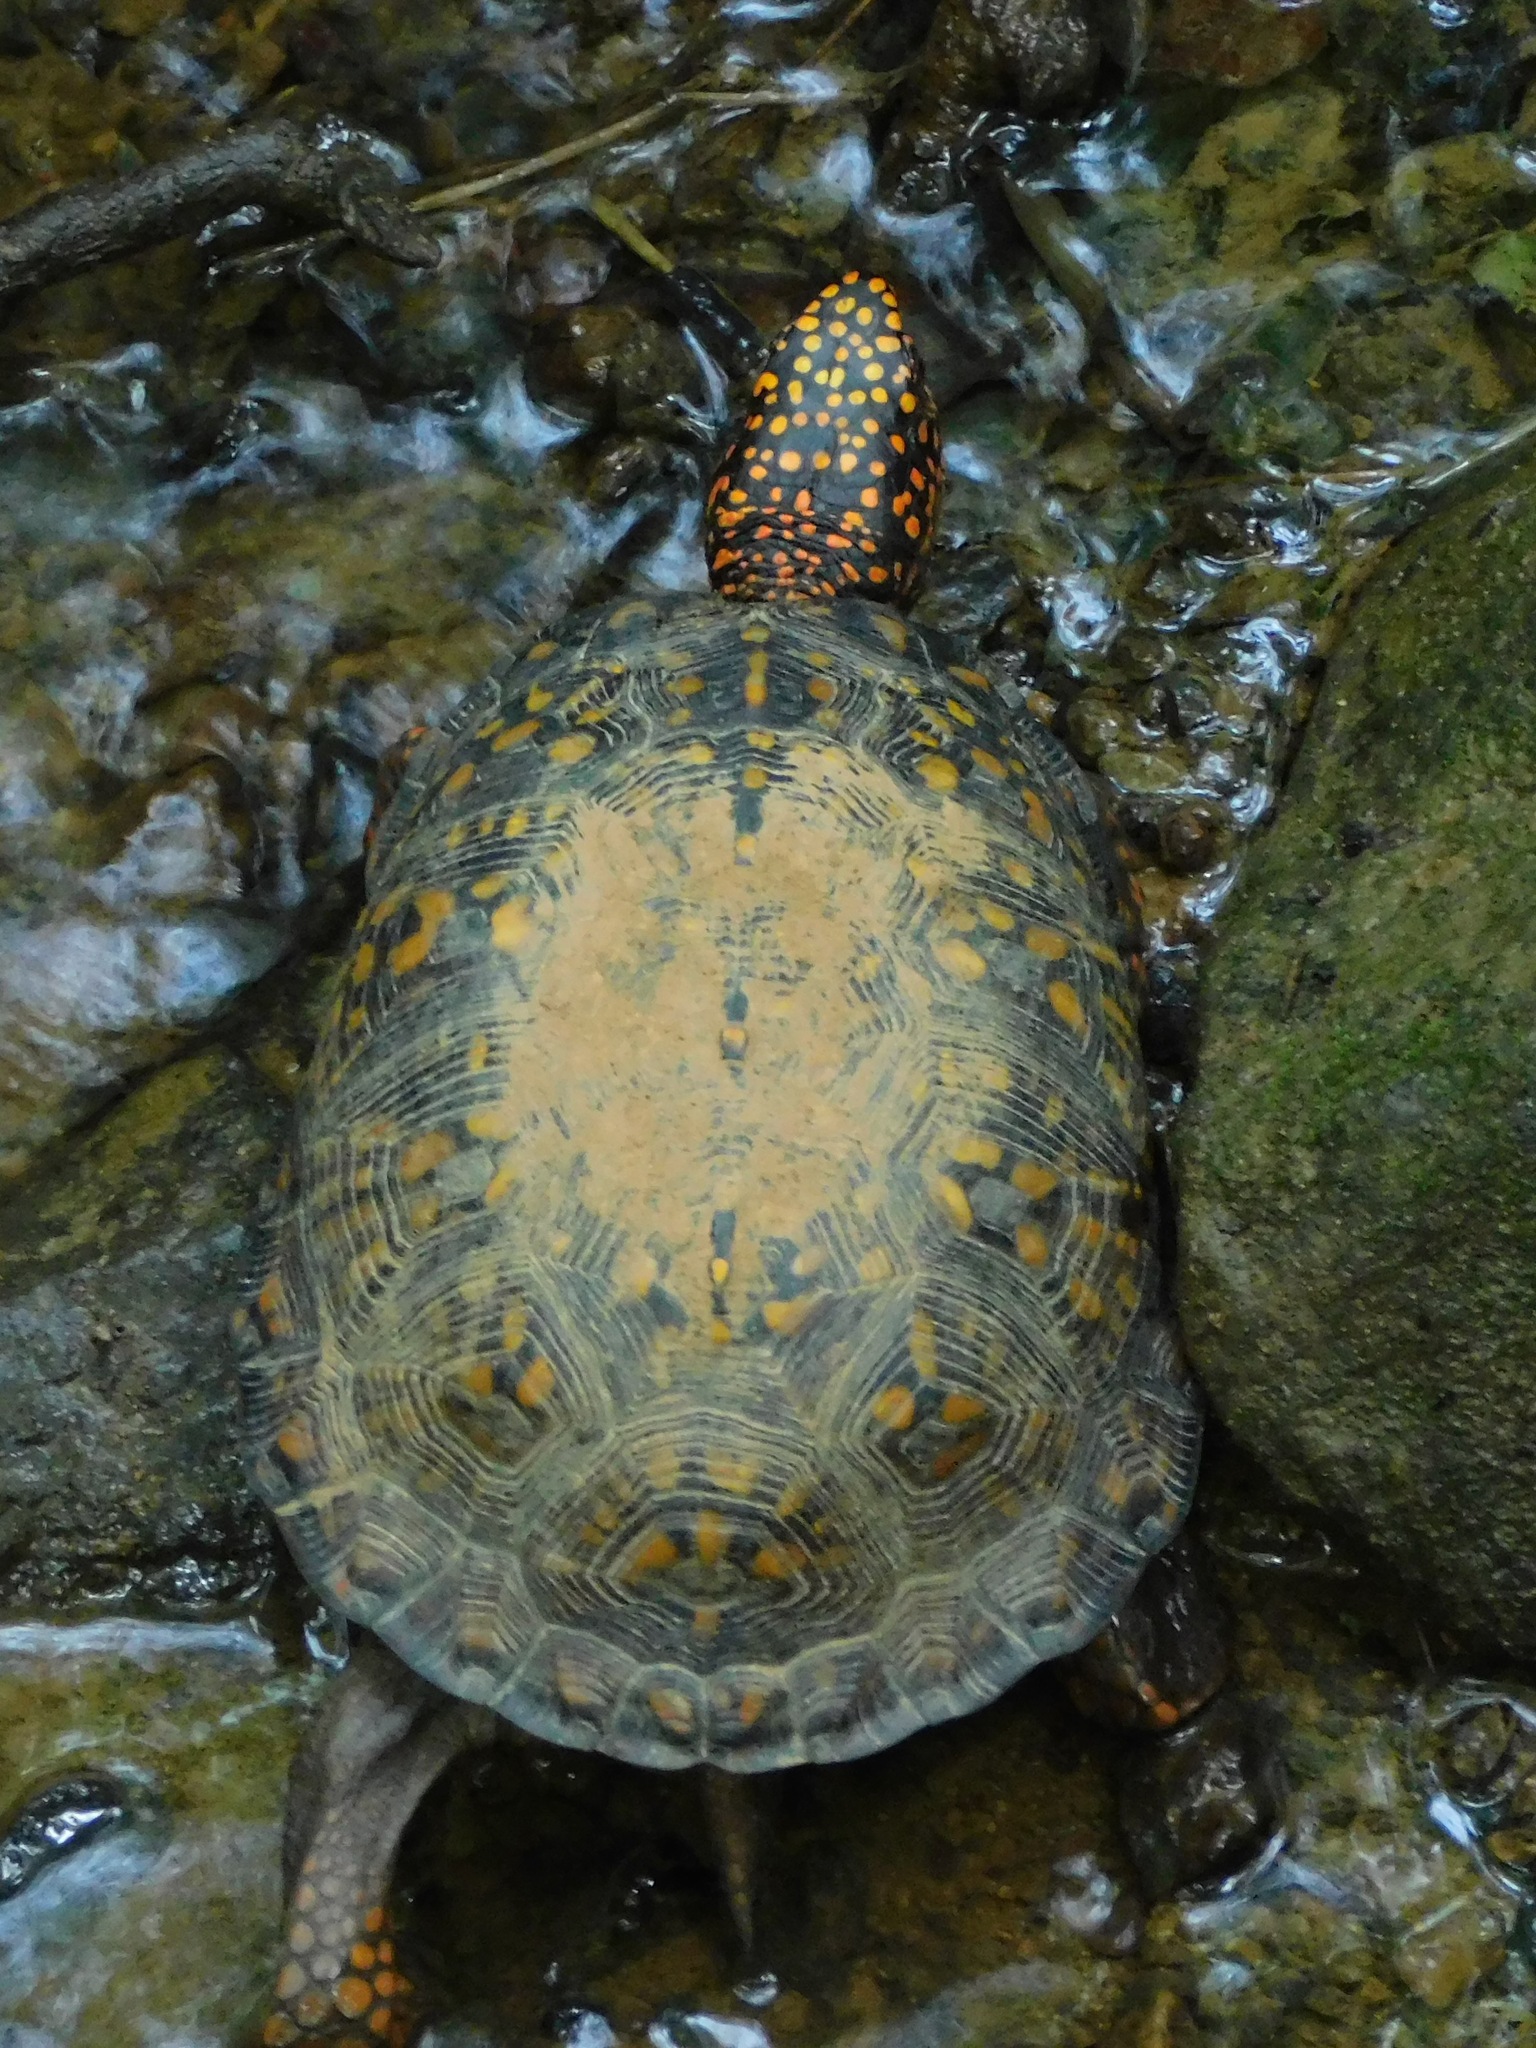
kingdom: Animalia
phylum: Chordata
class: Testudines
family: Emydidae
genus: Terrapene
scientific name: Terrapene carolina
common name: Common box turtle
